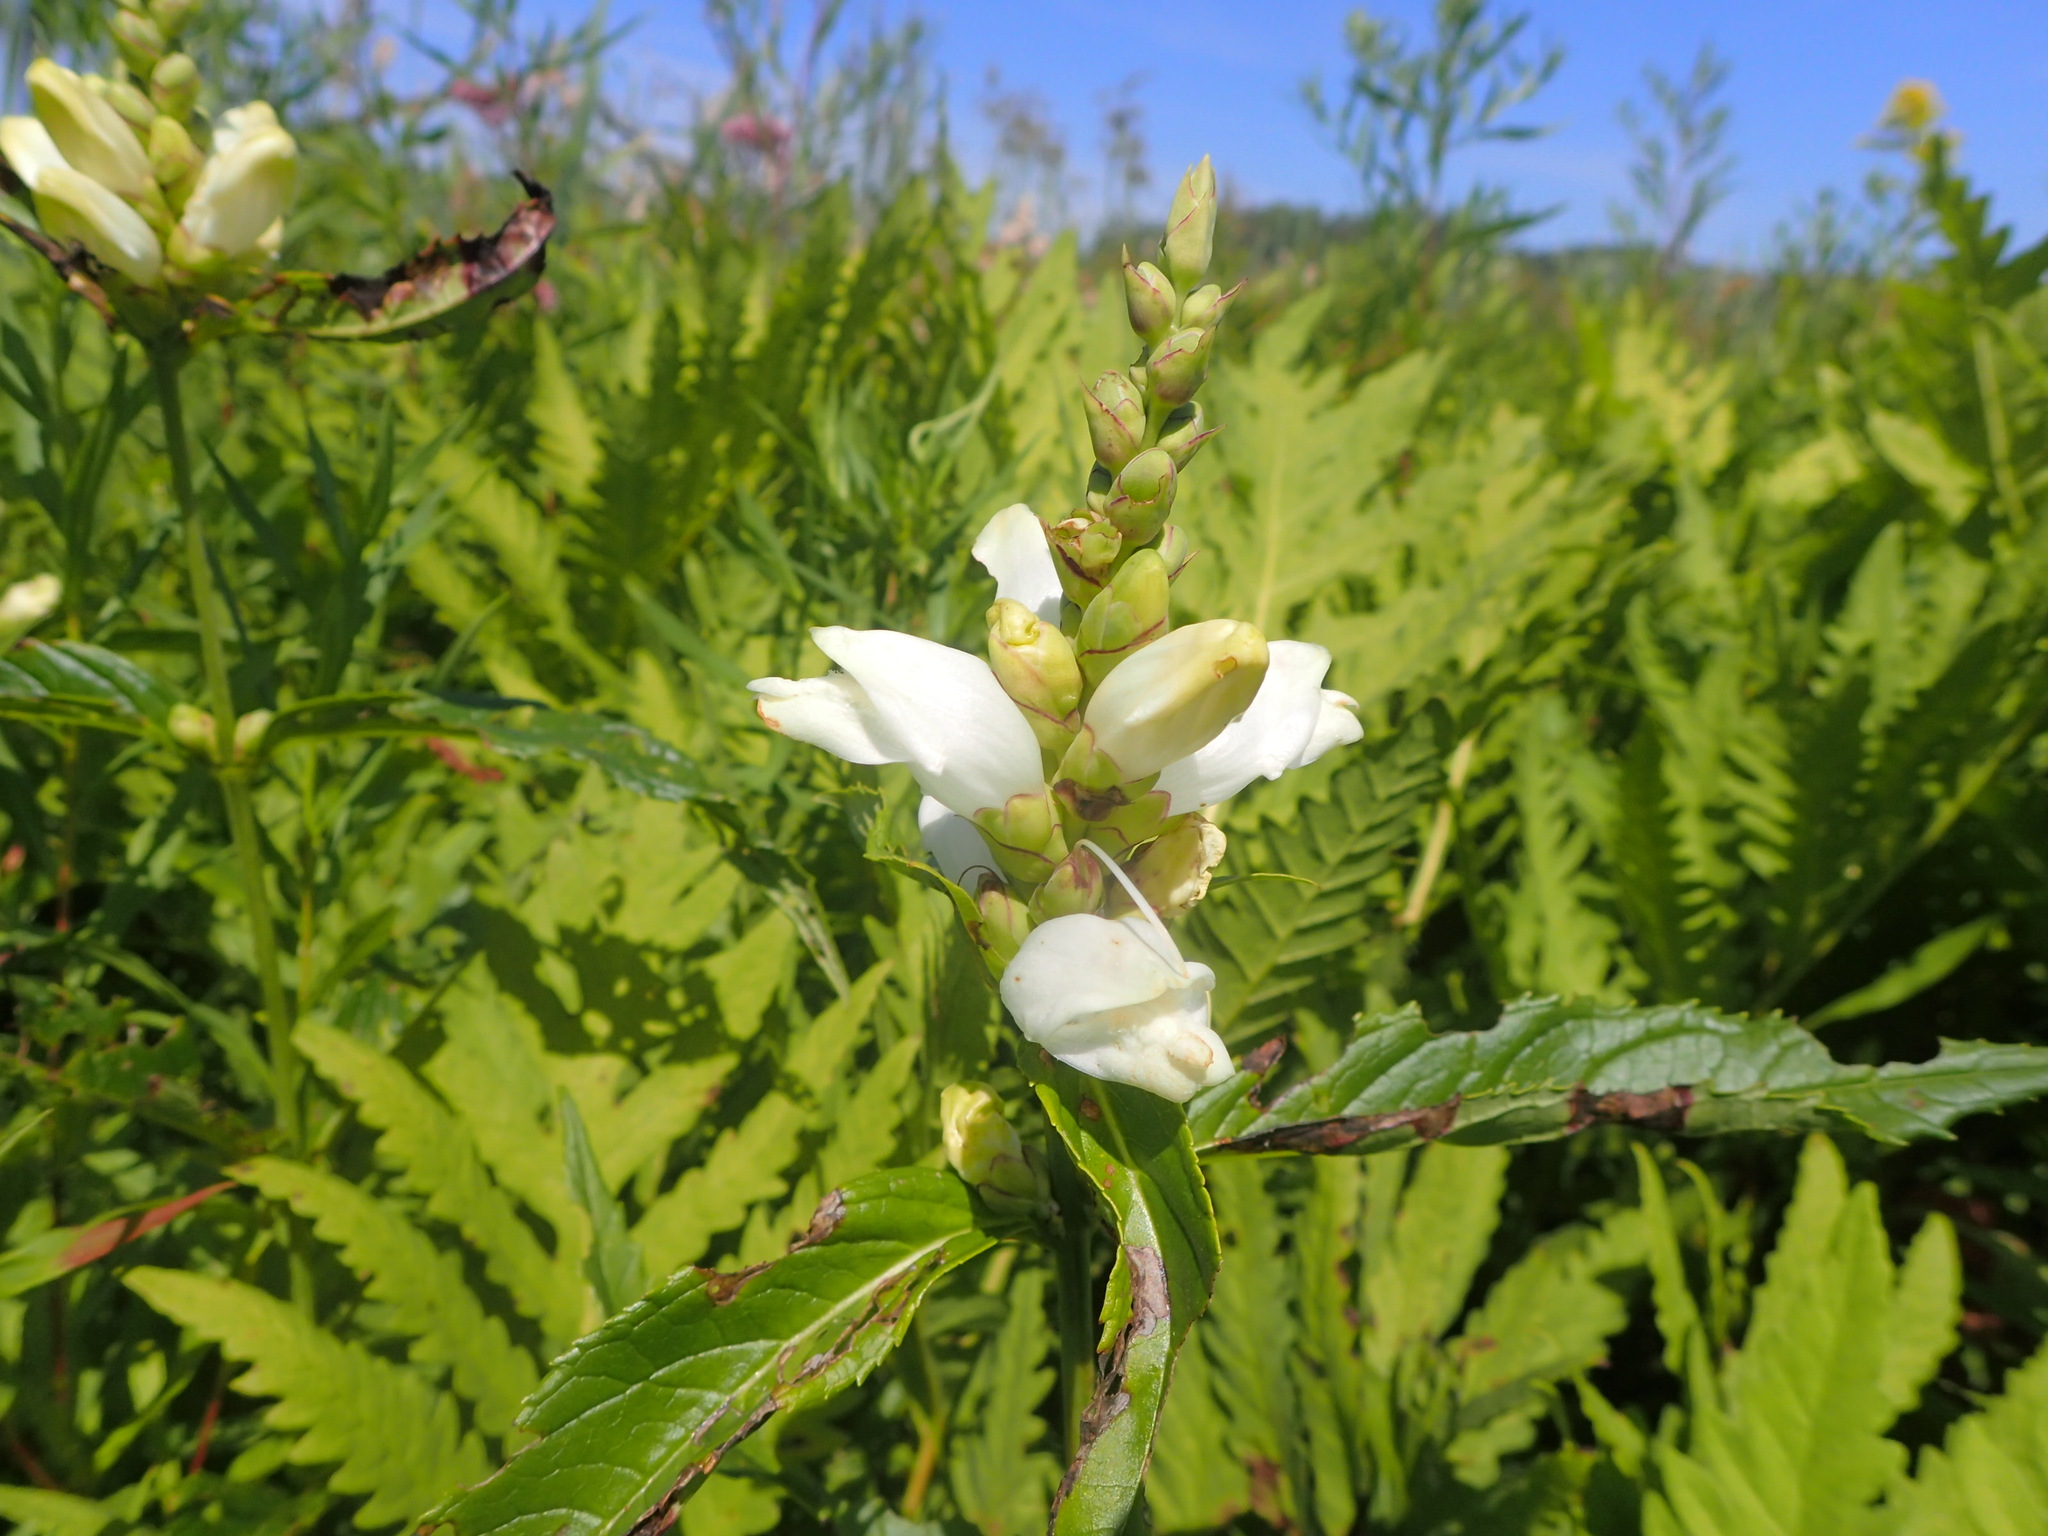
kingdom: Plantae
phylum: Tracheophyta
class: Magnoliopsida
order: Lamiales
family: Plantaginaceae
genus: Chelone
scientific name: Chelone glabra
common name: Snakehead
